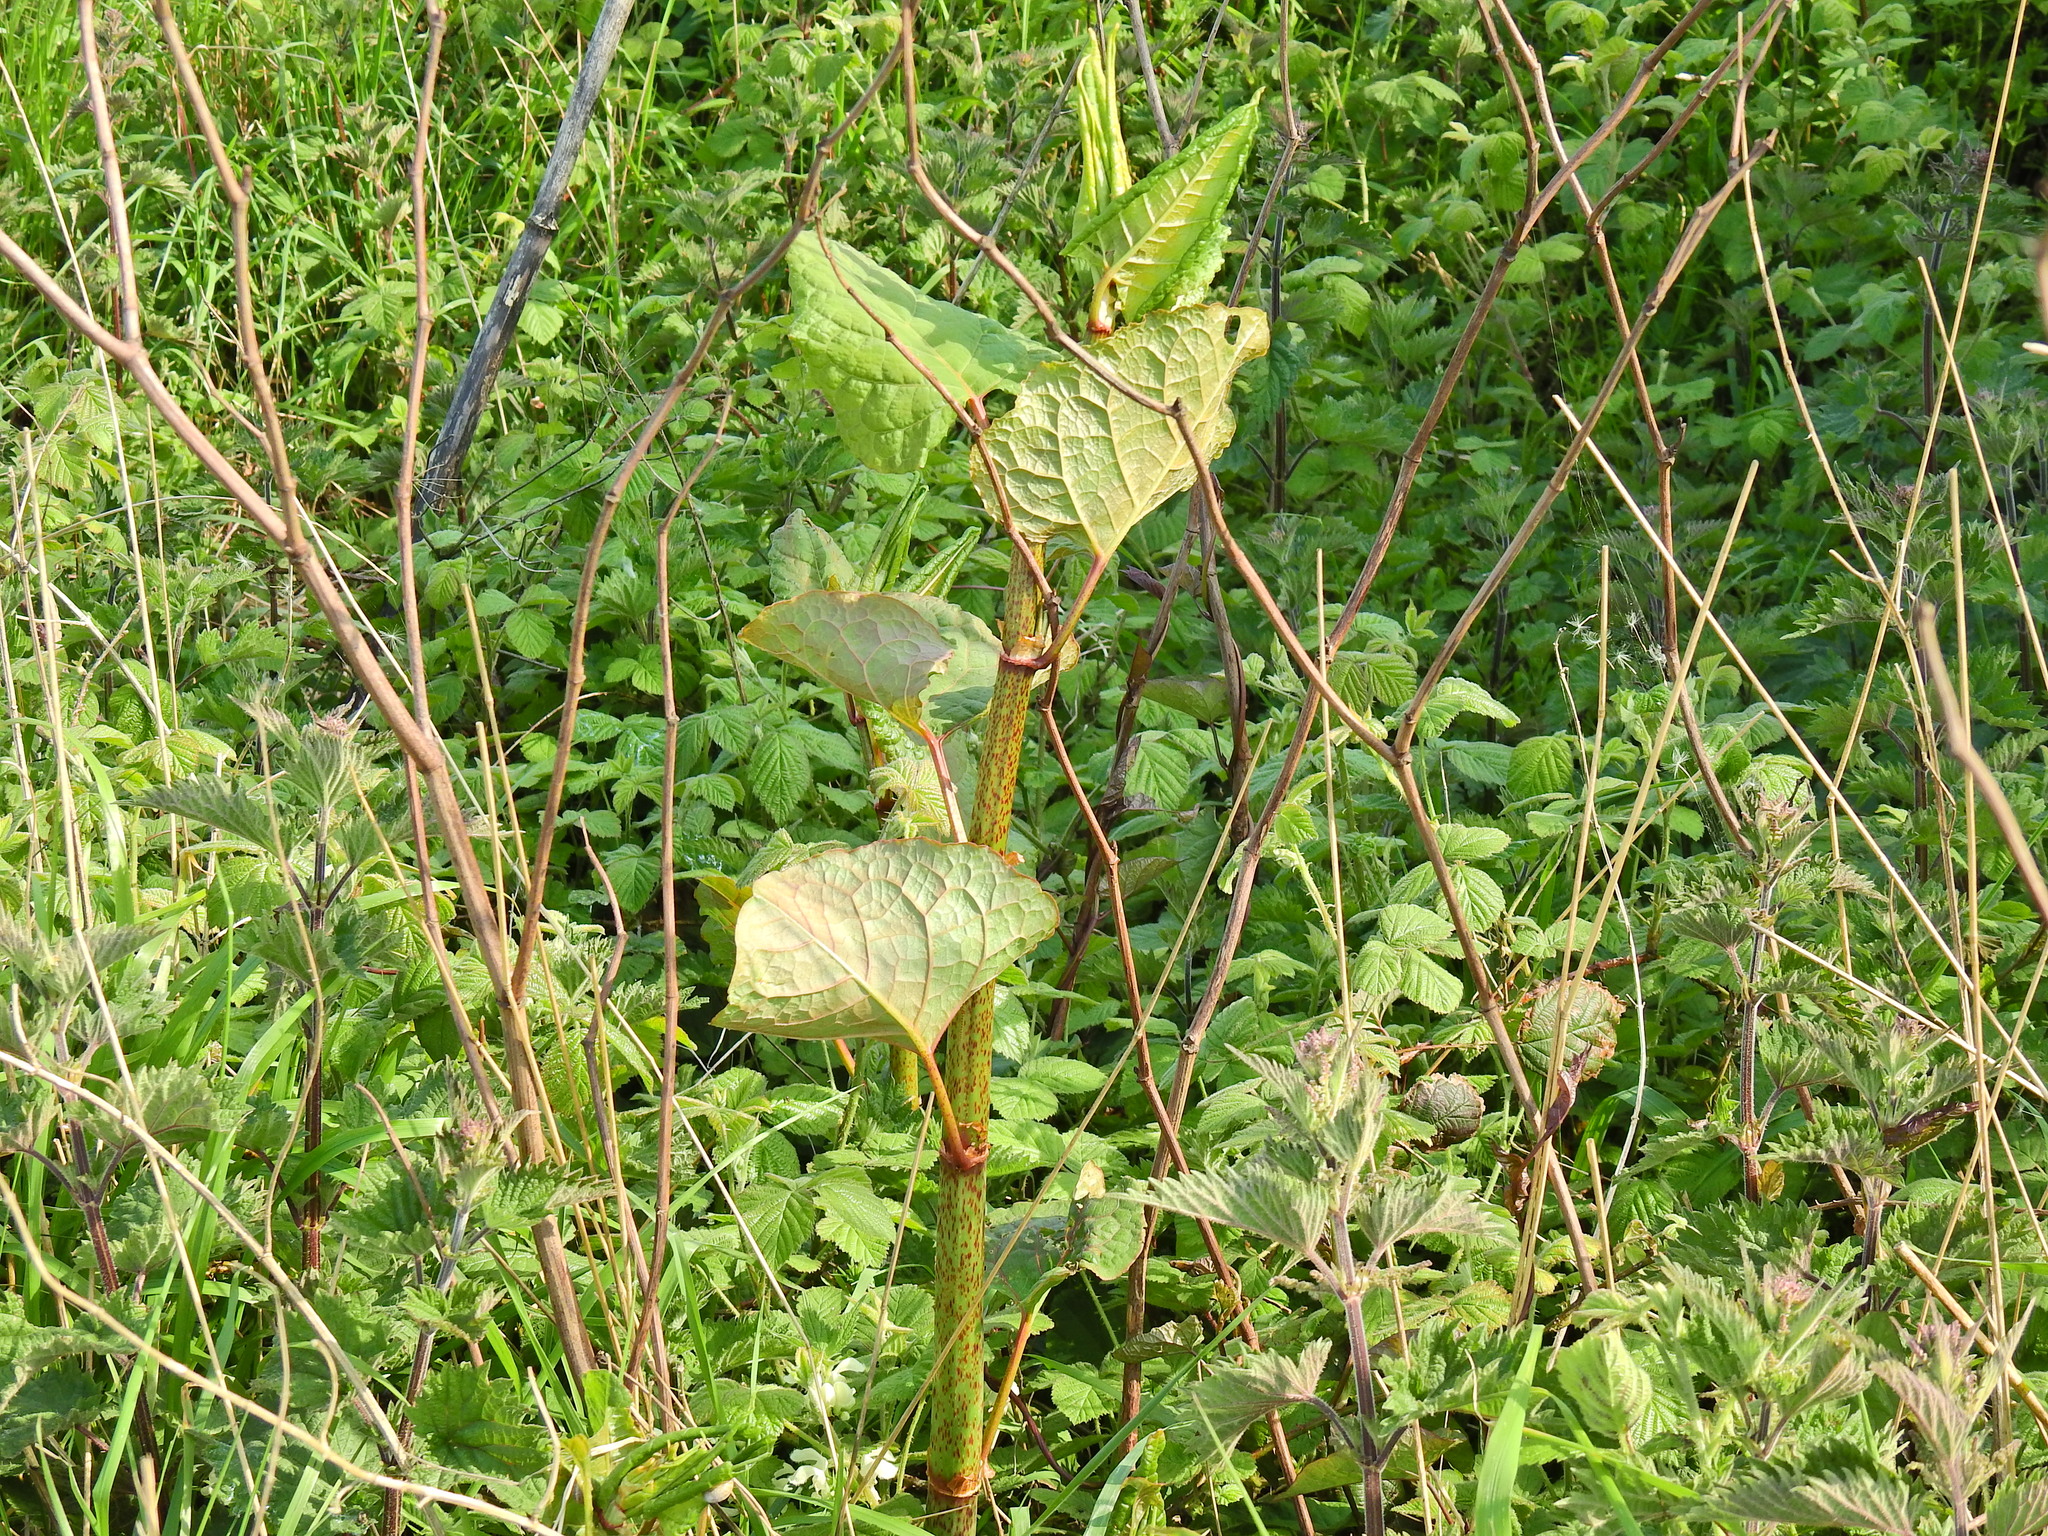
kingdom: Plantae
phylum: Tracheophyta
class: Magnoliopsida
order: Caryophyllales
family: Polygonaceae
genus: Reynoutria
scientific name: Reynoutria japonica
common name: Japanese knotweed
